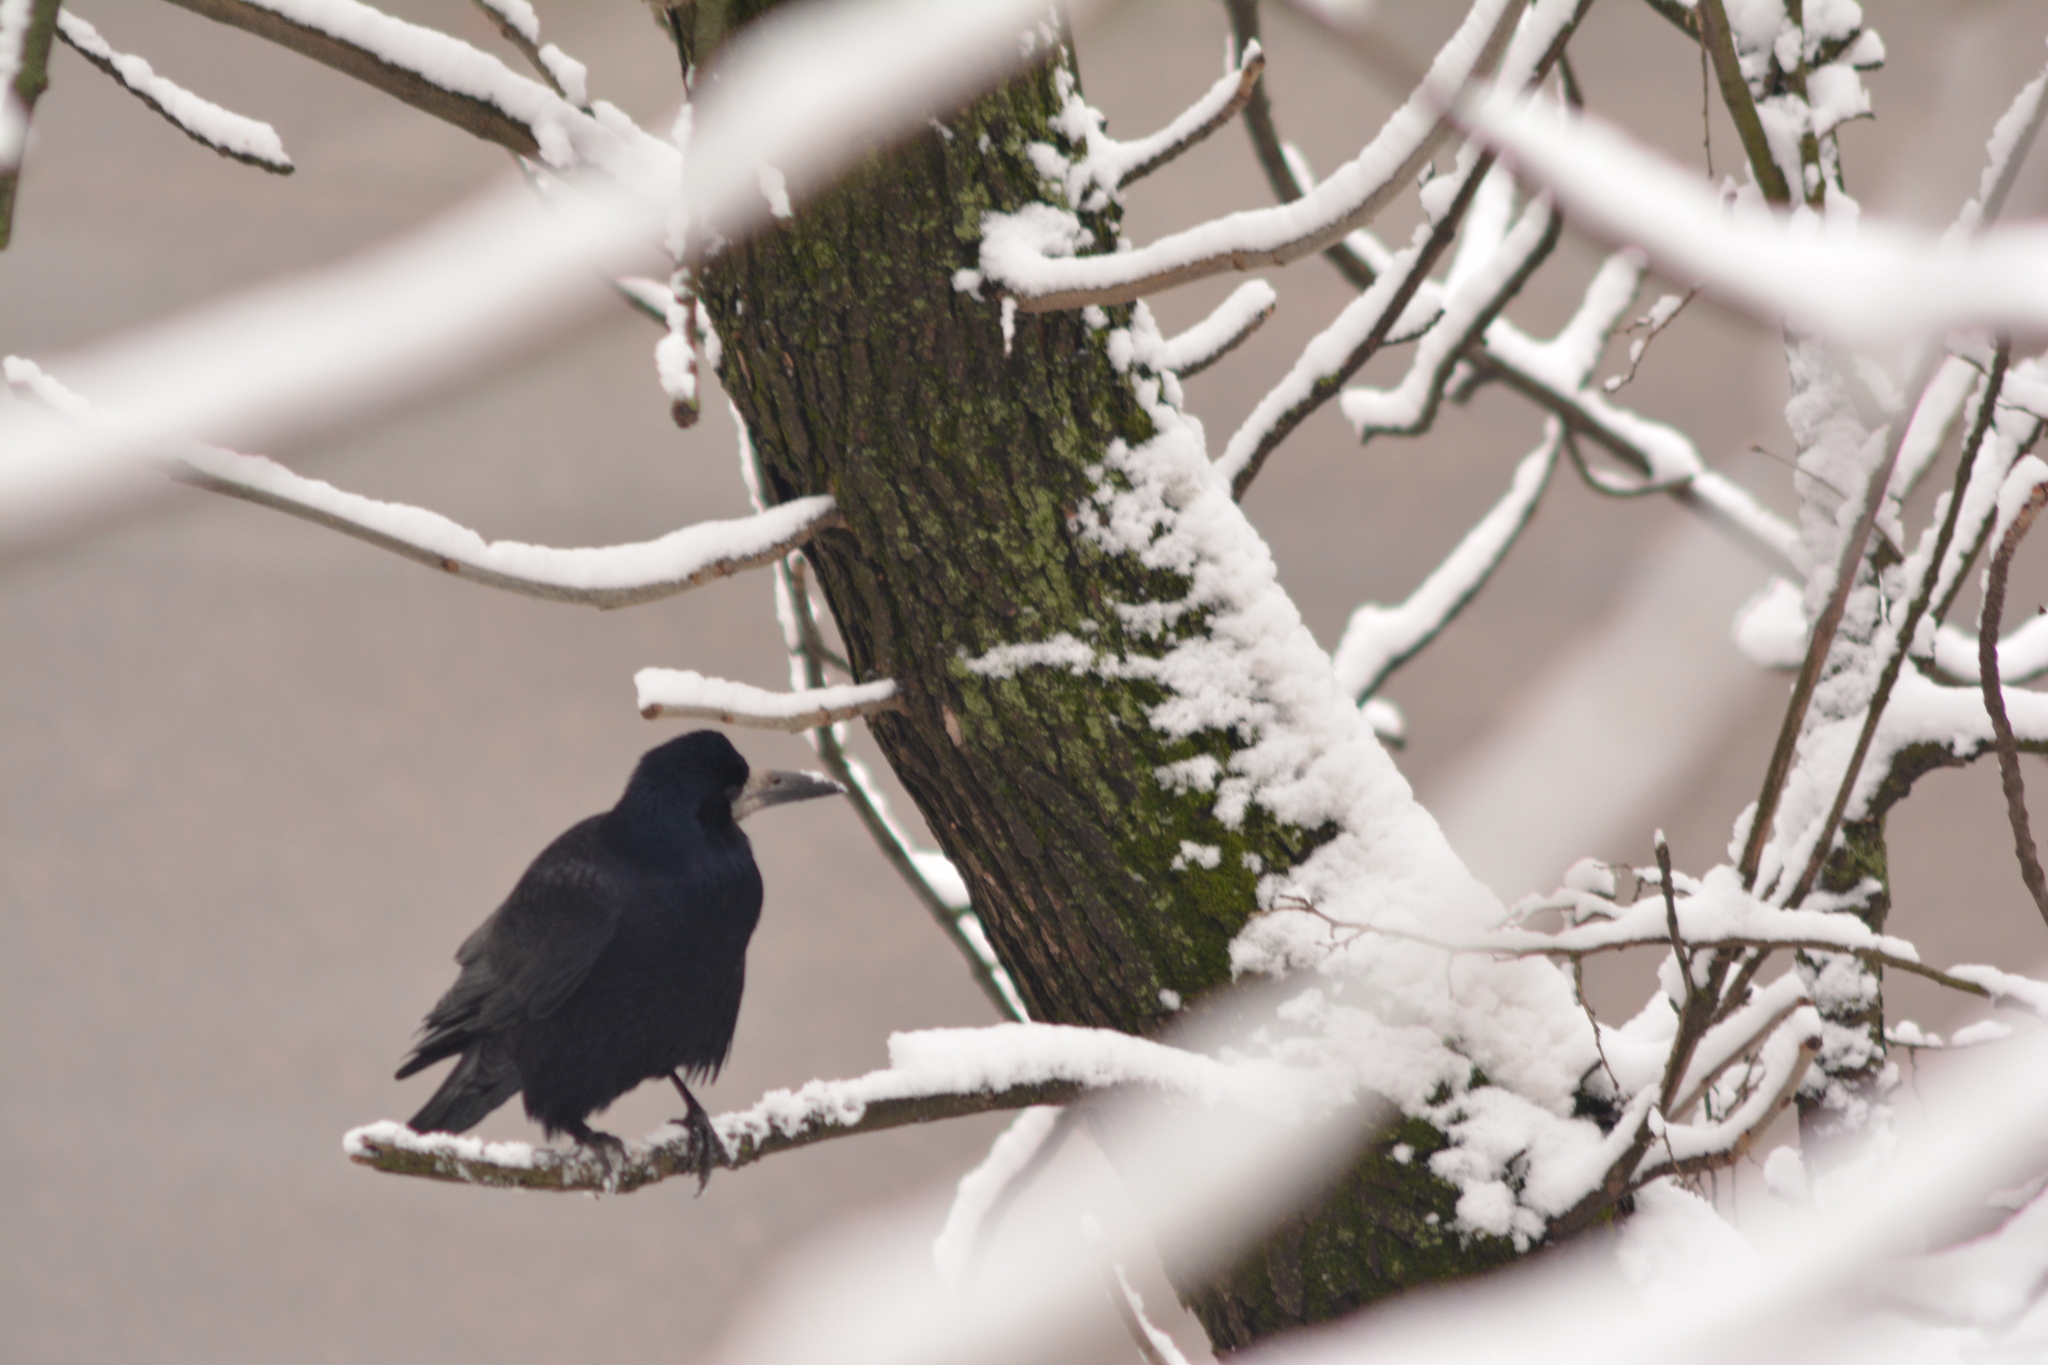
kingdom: Animalia
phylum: Chordata
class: Aves
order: Passeriformes
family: Corvidae
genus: Corvus
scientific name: Corvus frugilegus
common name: Rook
